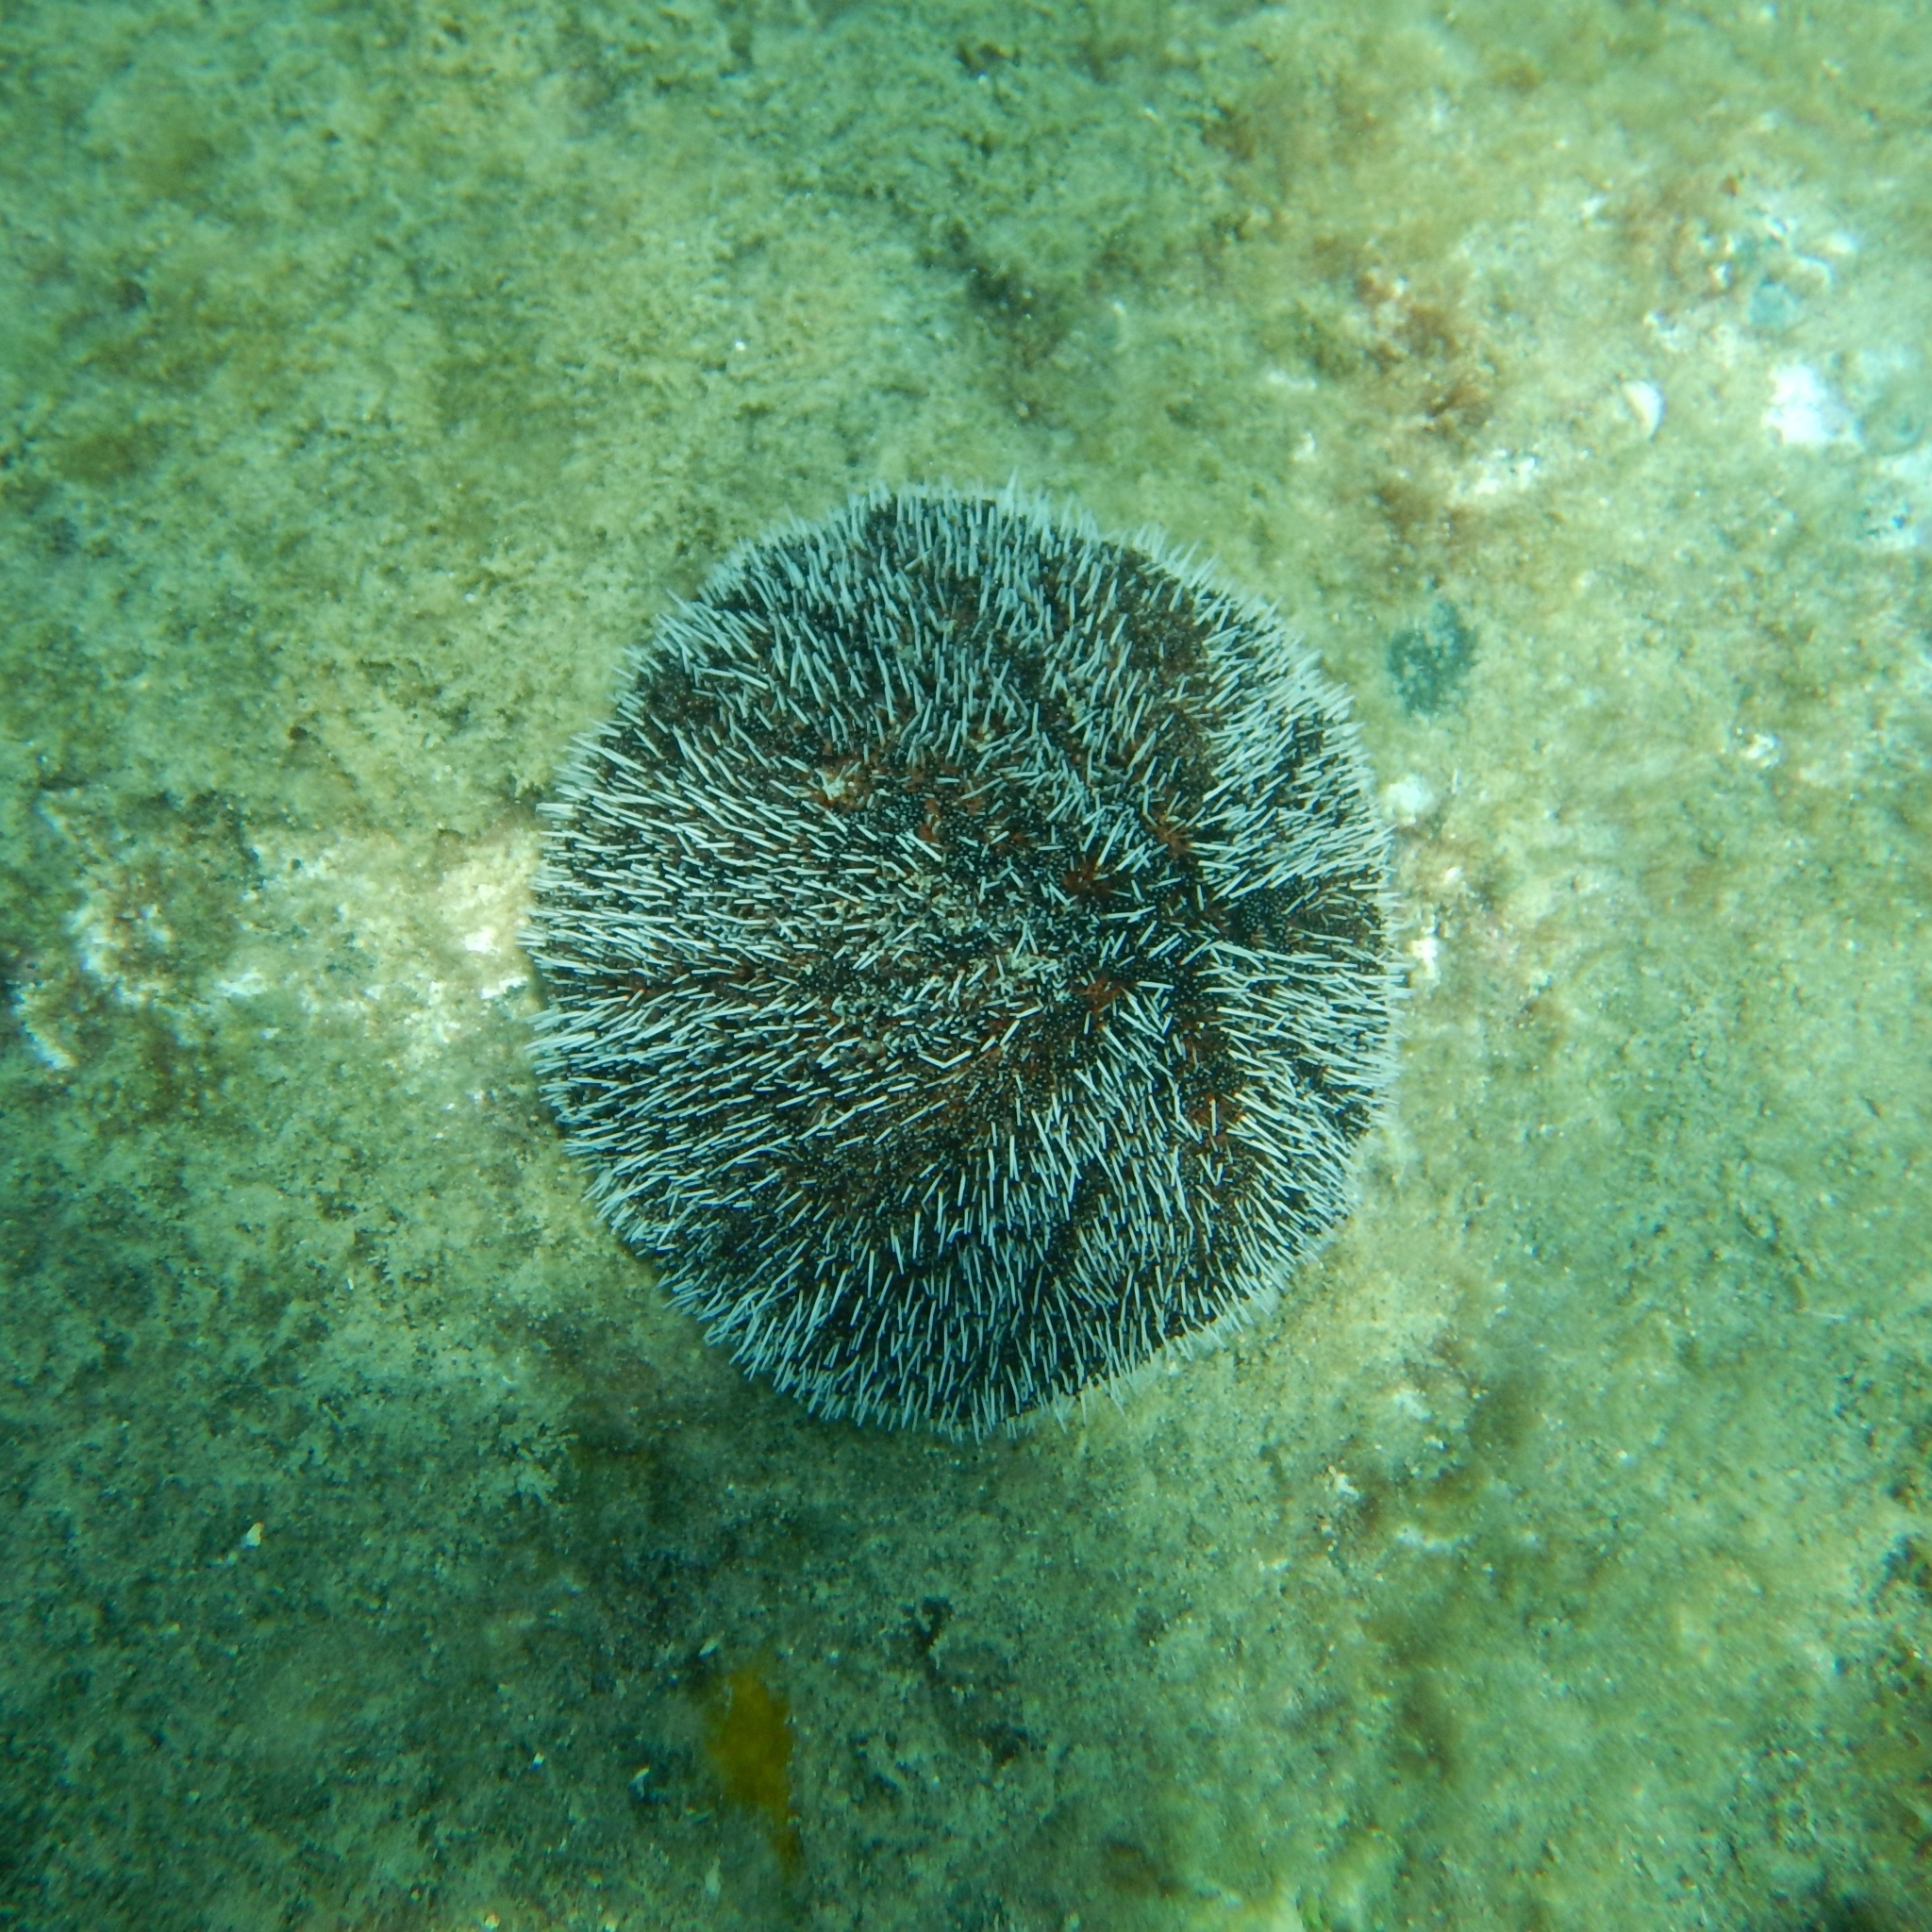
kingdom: Animalia
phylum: Echinodermata
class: Echinoidea
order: Camarodonta
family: Toxopneustidae
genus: Tripneustes
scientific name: Tripneustes ventricosus
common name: West indian sea egg
